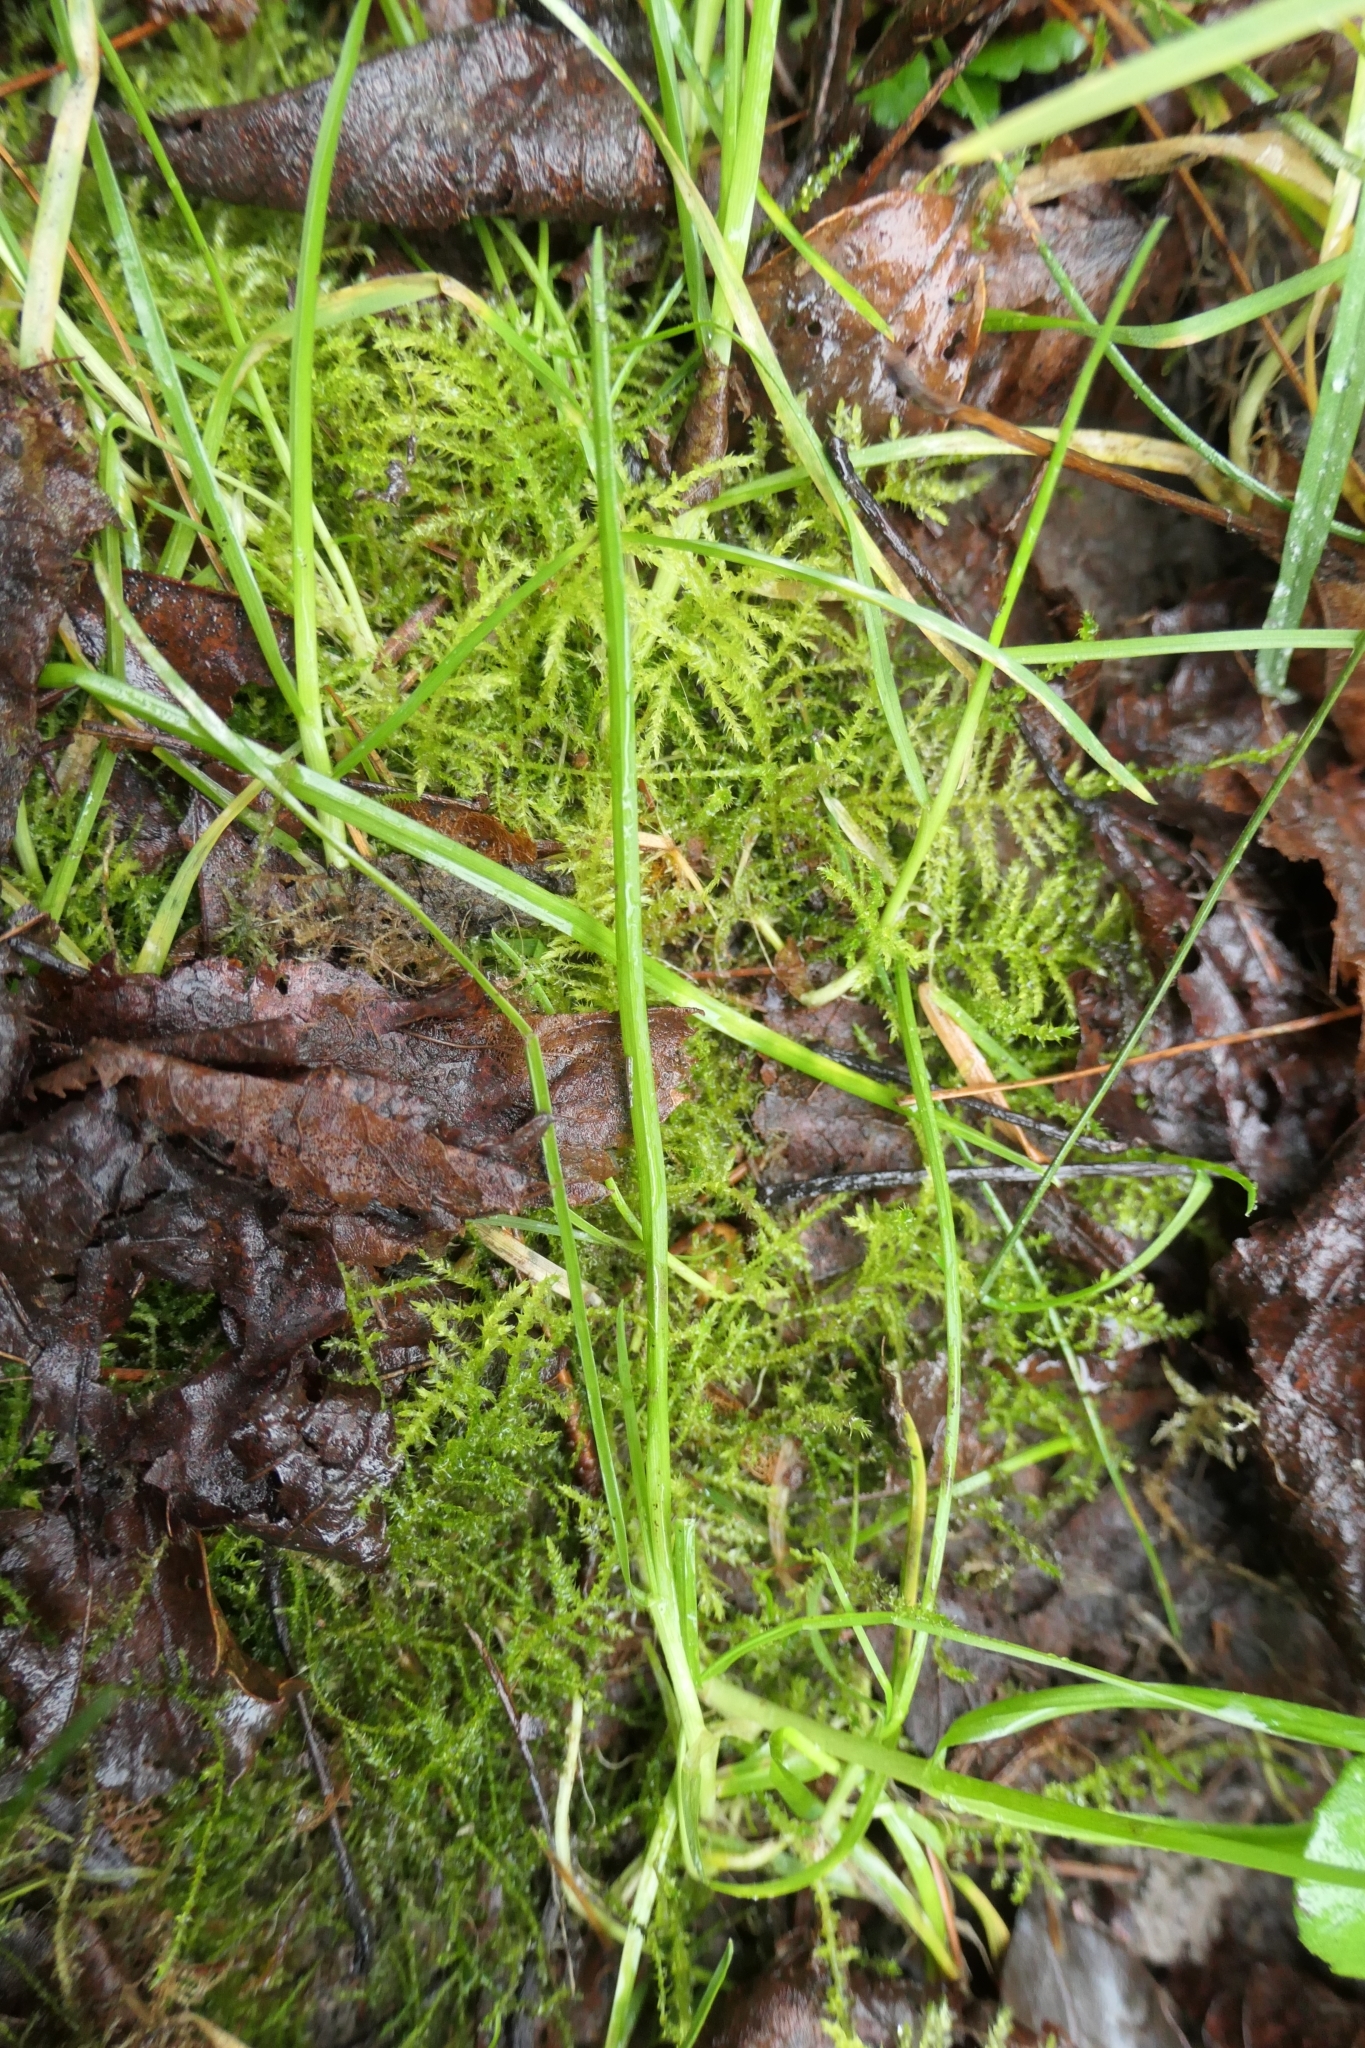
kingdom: Plantae
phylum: Bryophyta
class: Bryopsida
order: Hypnales
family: Brachytheciaceae
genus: Kindbergia
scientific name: Kindbergia praelonga
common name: Slender beaked moss
